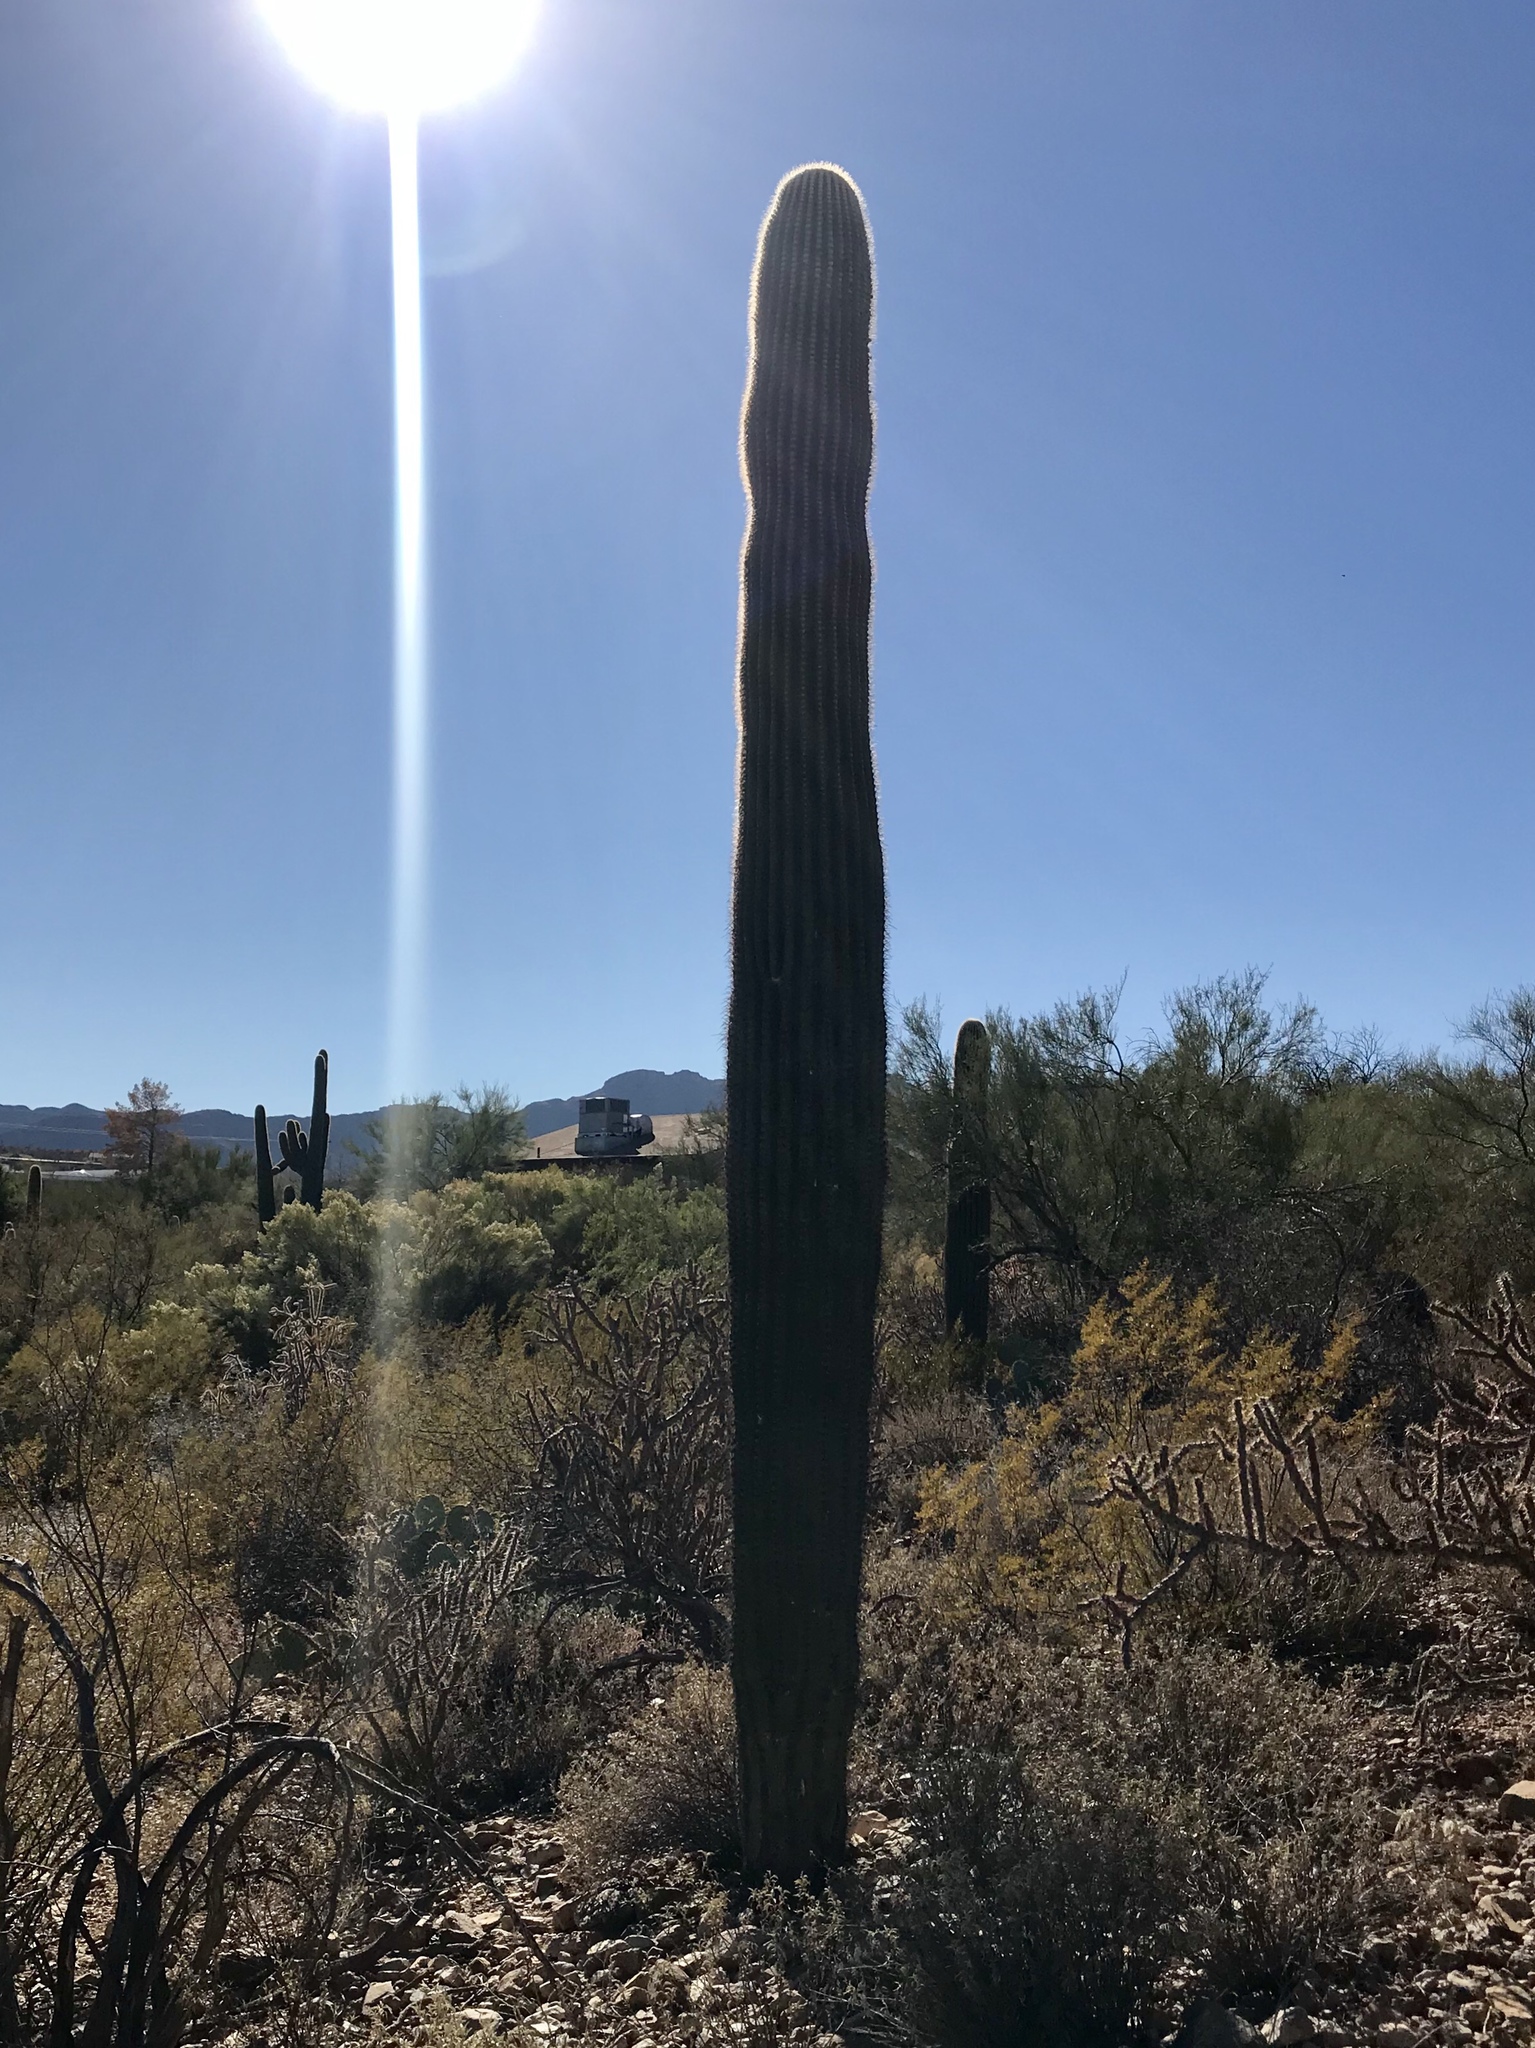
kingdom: Plantae
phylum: Tracheophyta
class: Magnoliopsida
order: Caryophyllales
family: Cactaceae
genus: Carnegiea
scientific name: Carnegiea gigantea
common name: Saguaro
